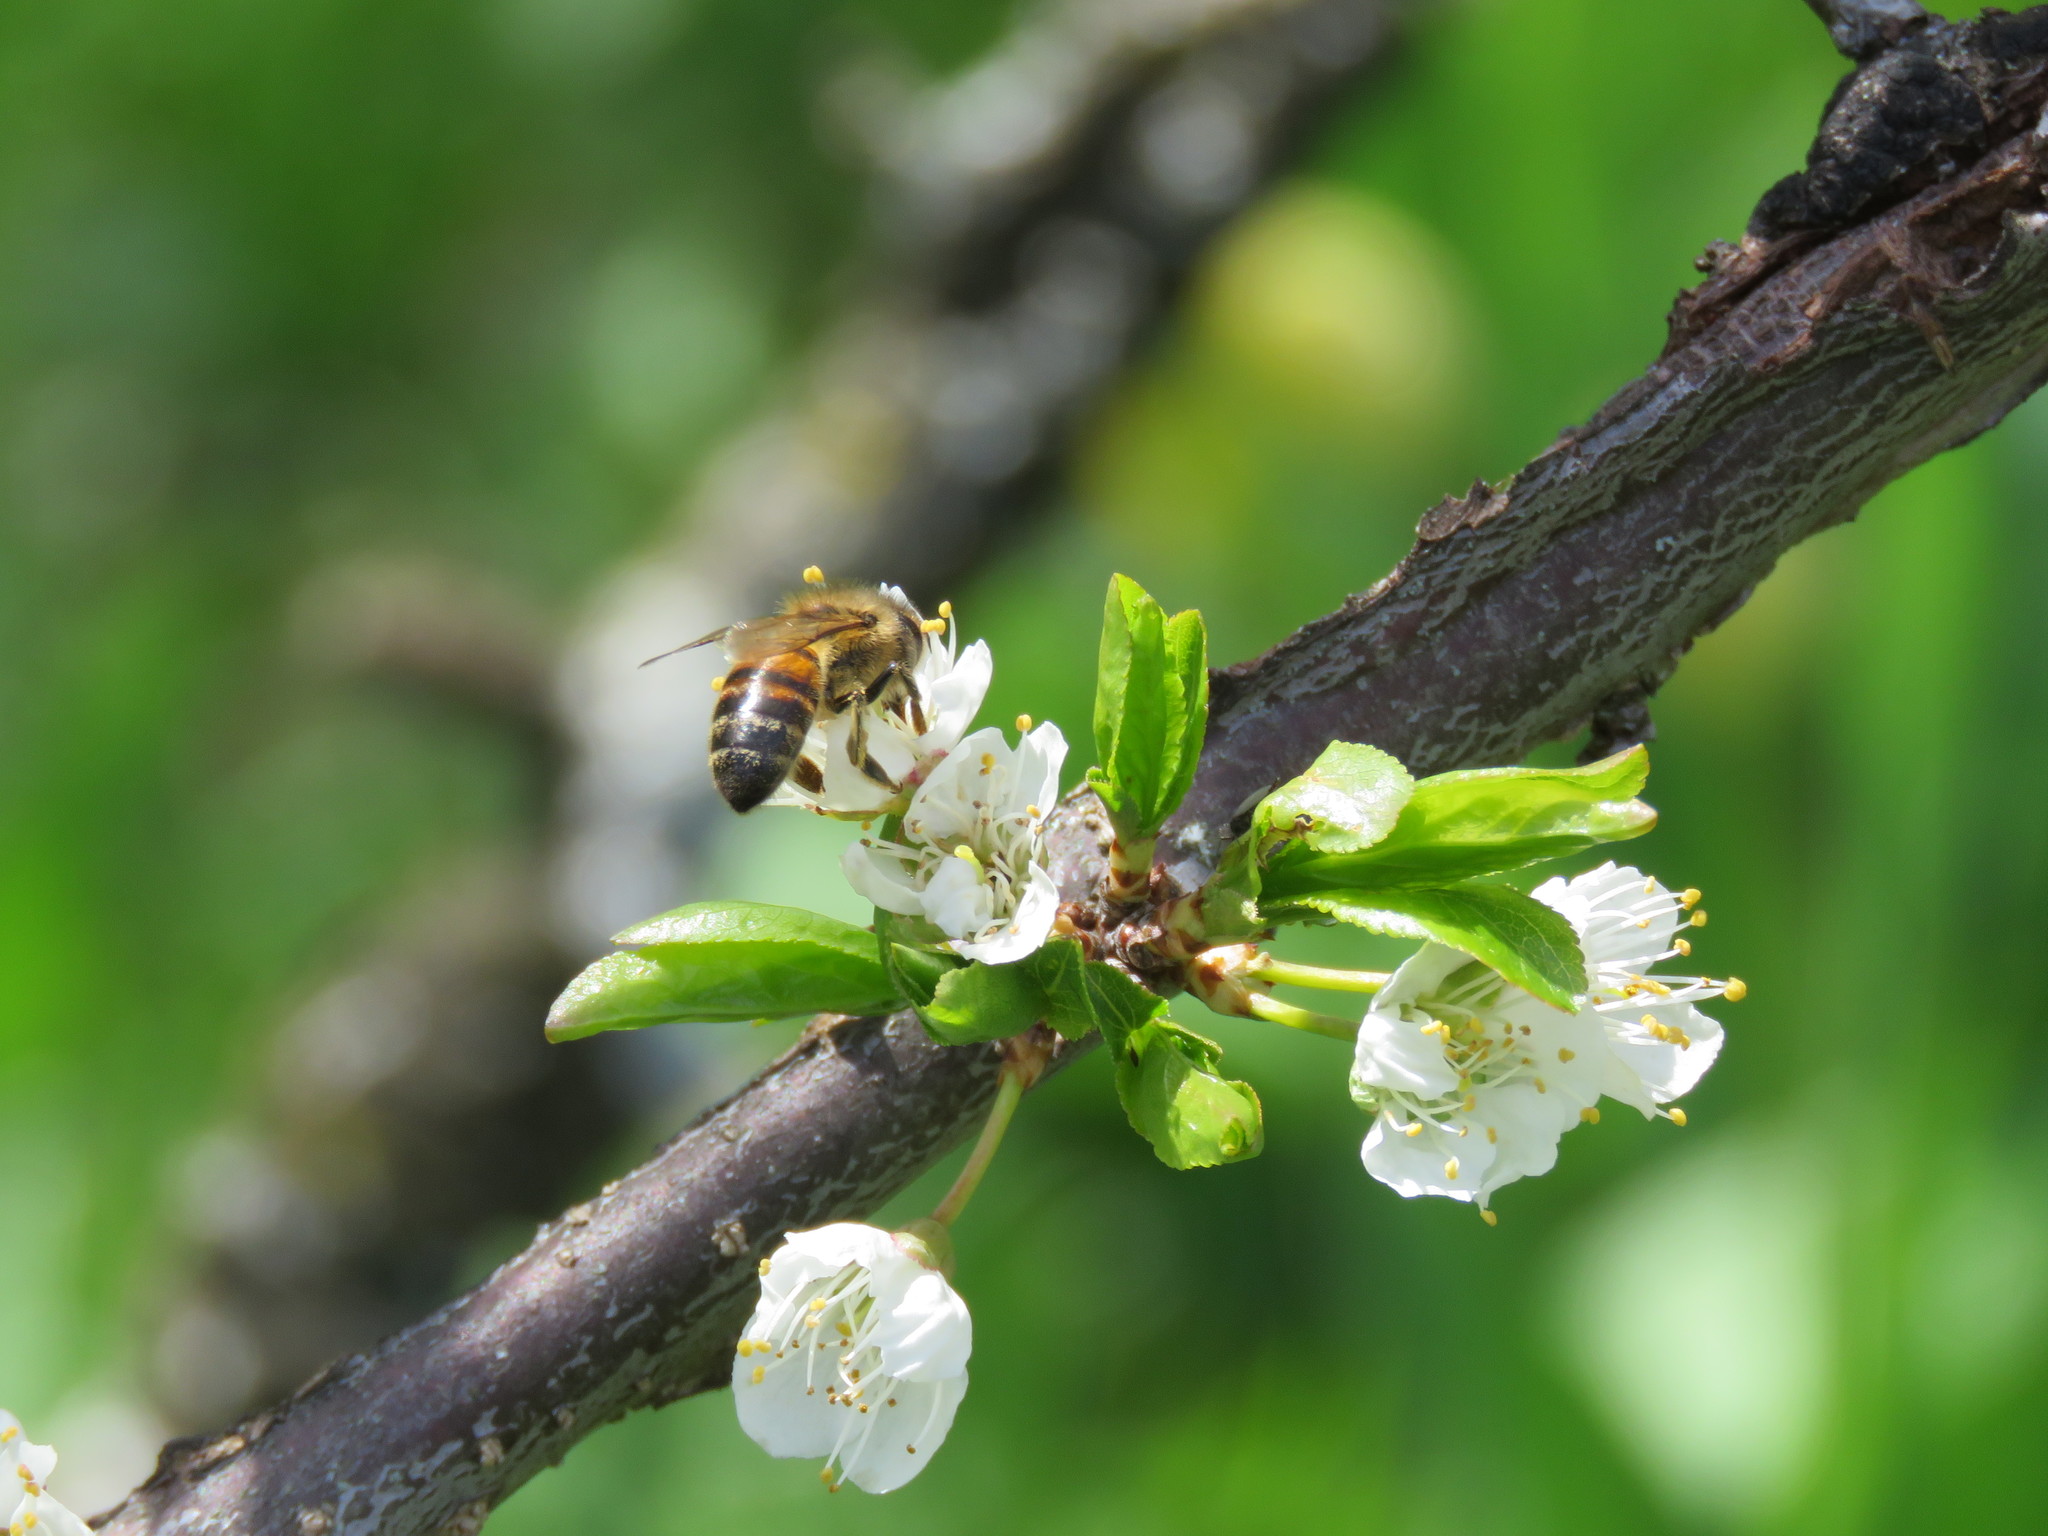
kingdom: Animalia
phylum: Arthropoda
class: Insecta
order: Hymenoptera
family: Apidae
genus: Apis
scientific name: Apis mellifera
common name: Honey bee
